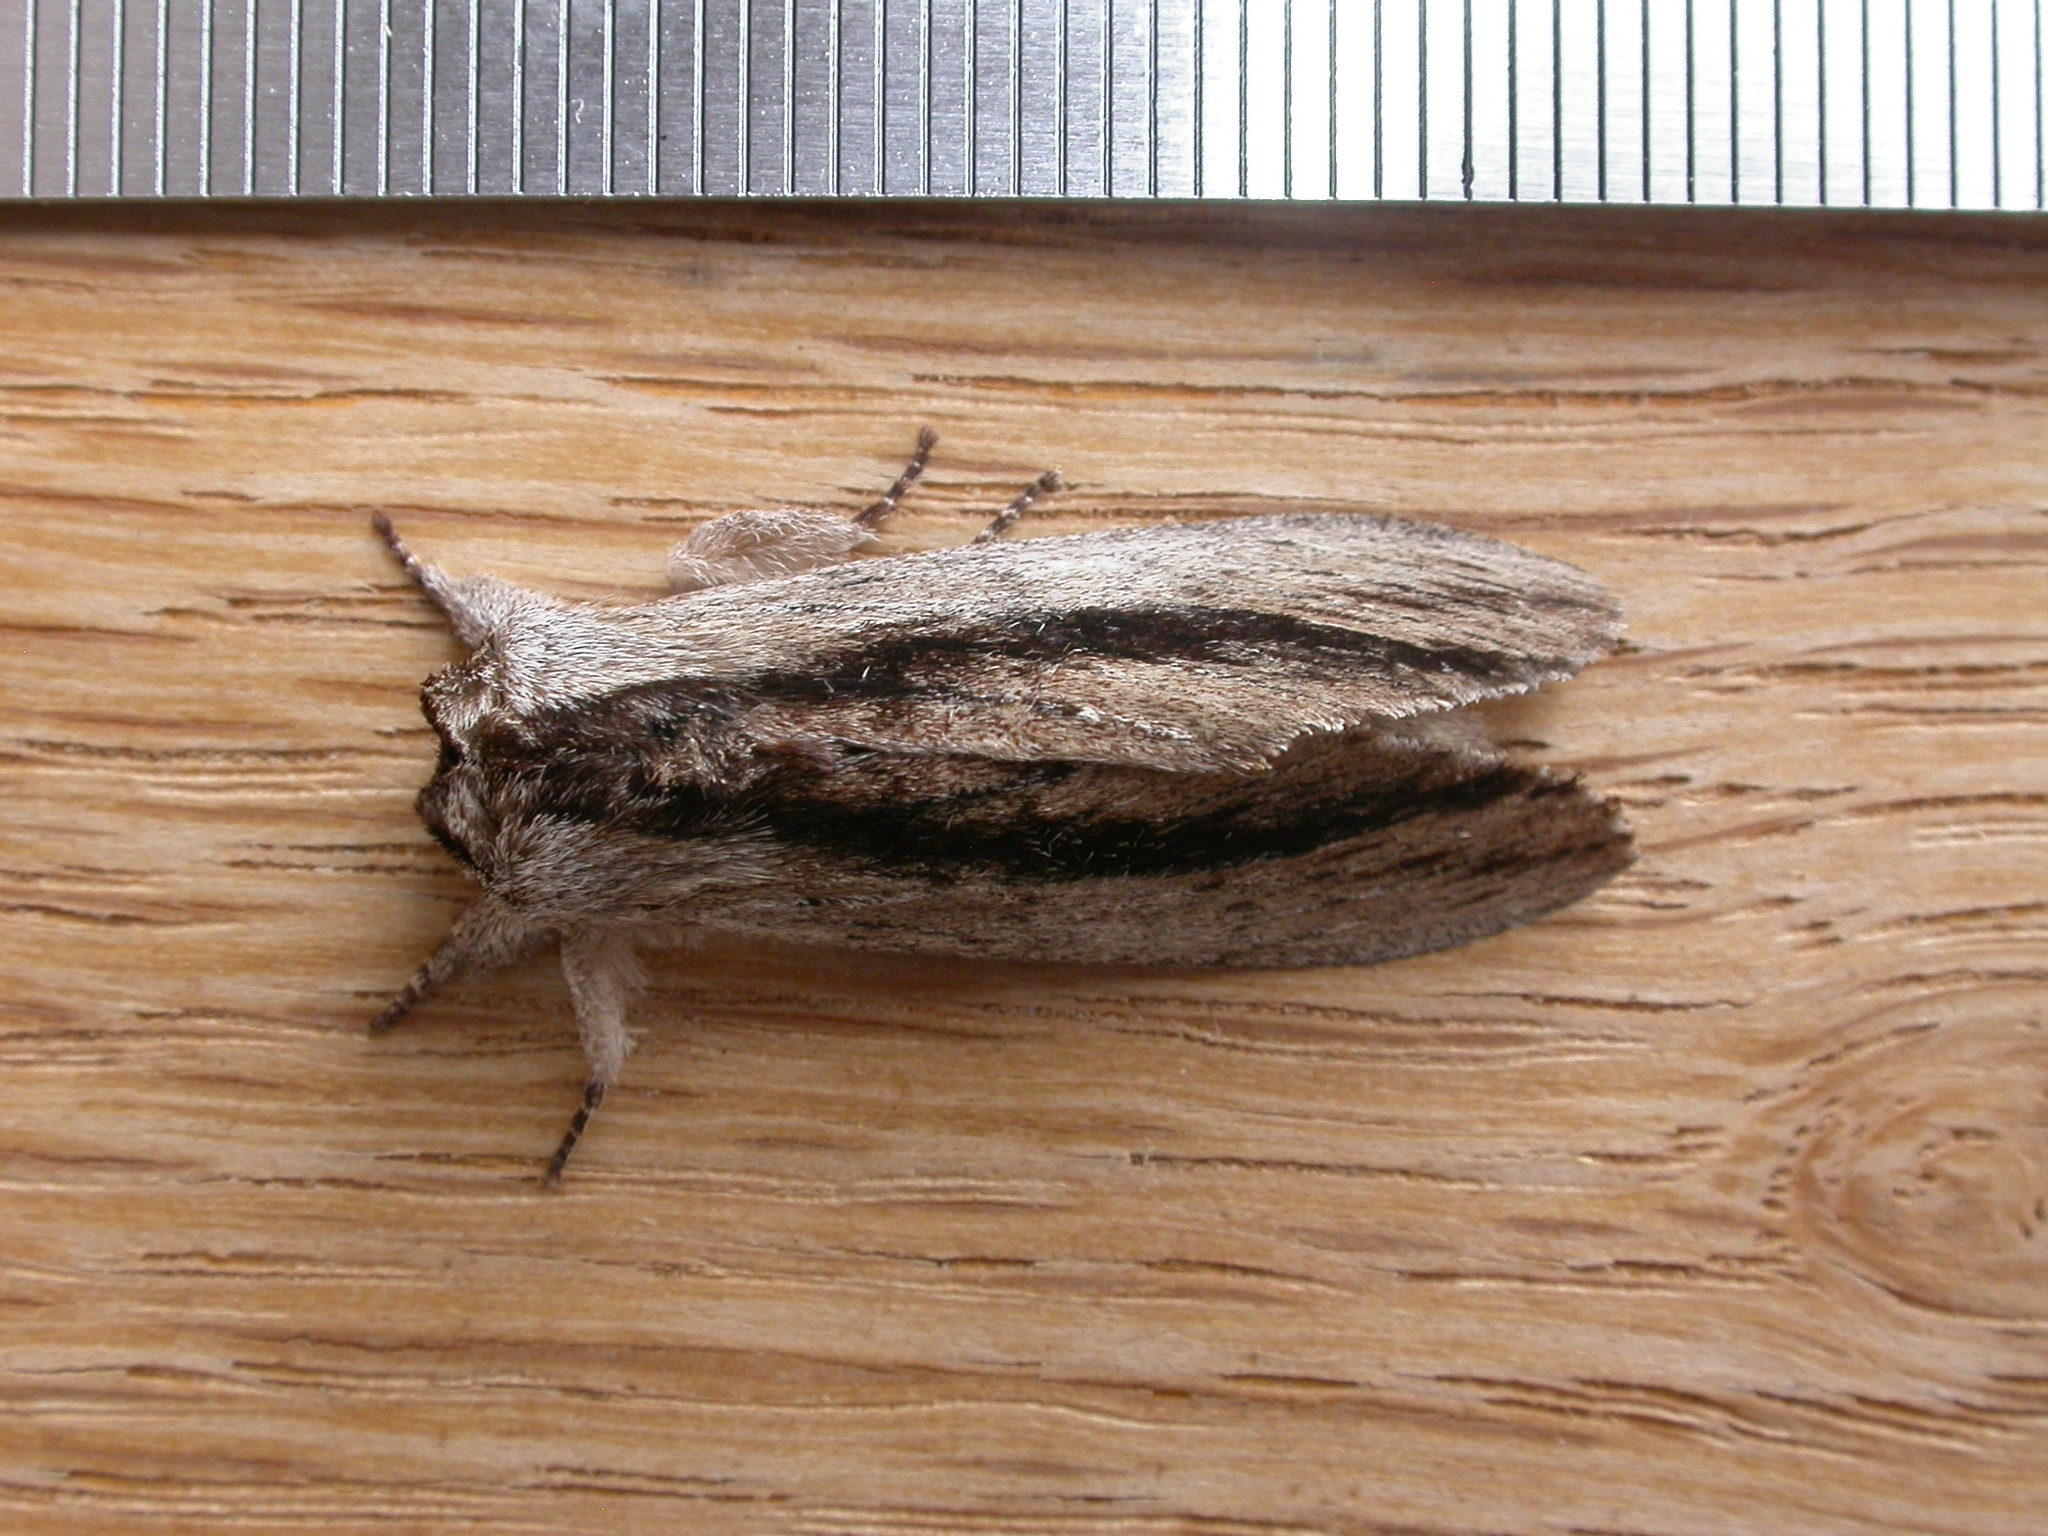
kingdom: Animalia
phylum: Arthropoda
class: Insecta
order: Lepidoptera
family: Notodontidae
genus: Destolmia
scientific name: Destolmia lineata
